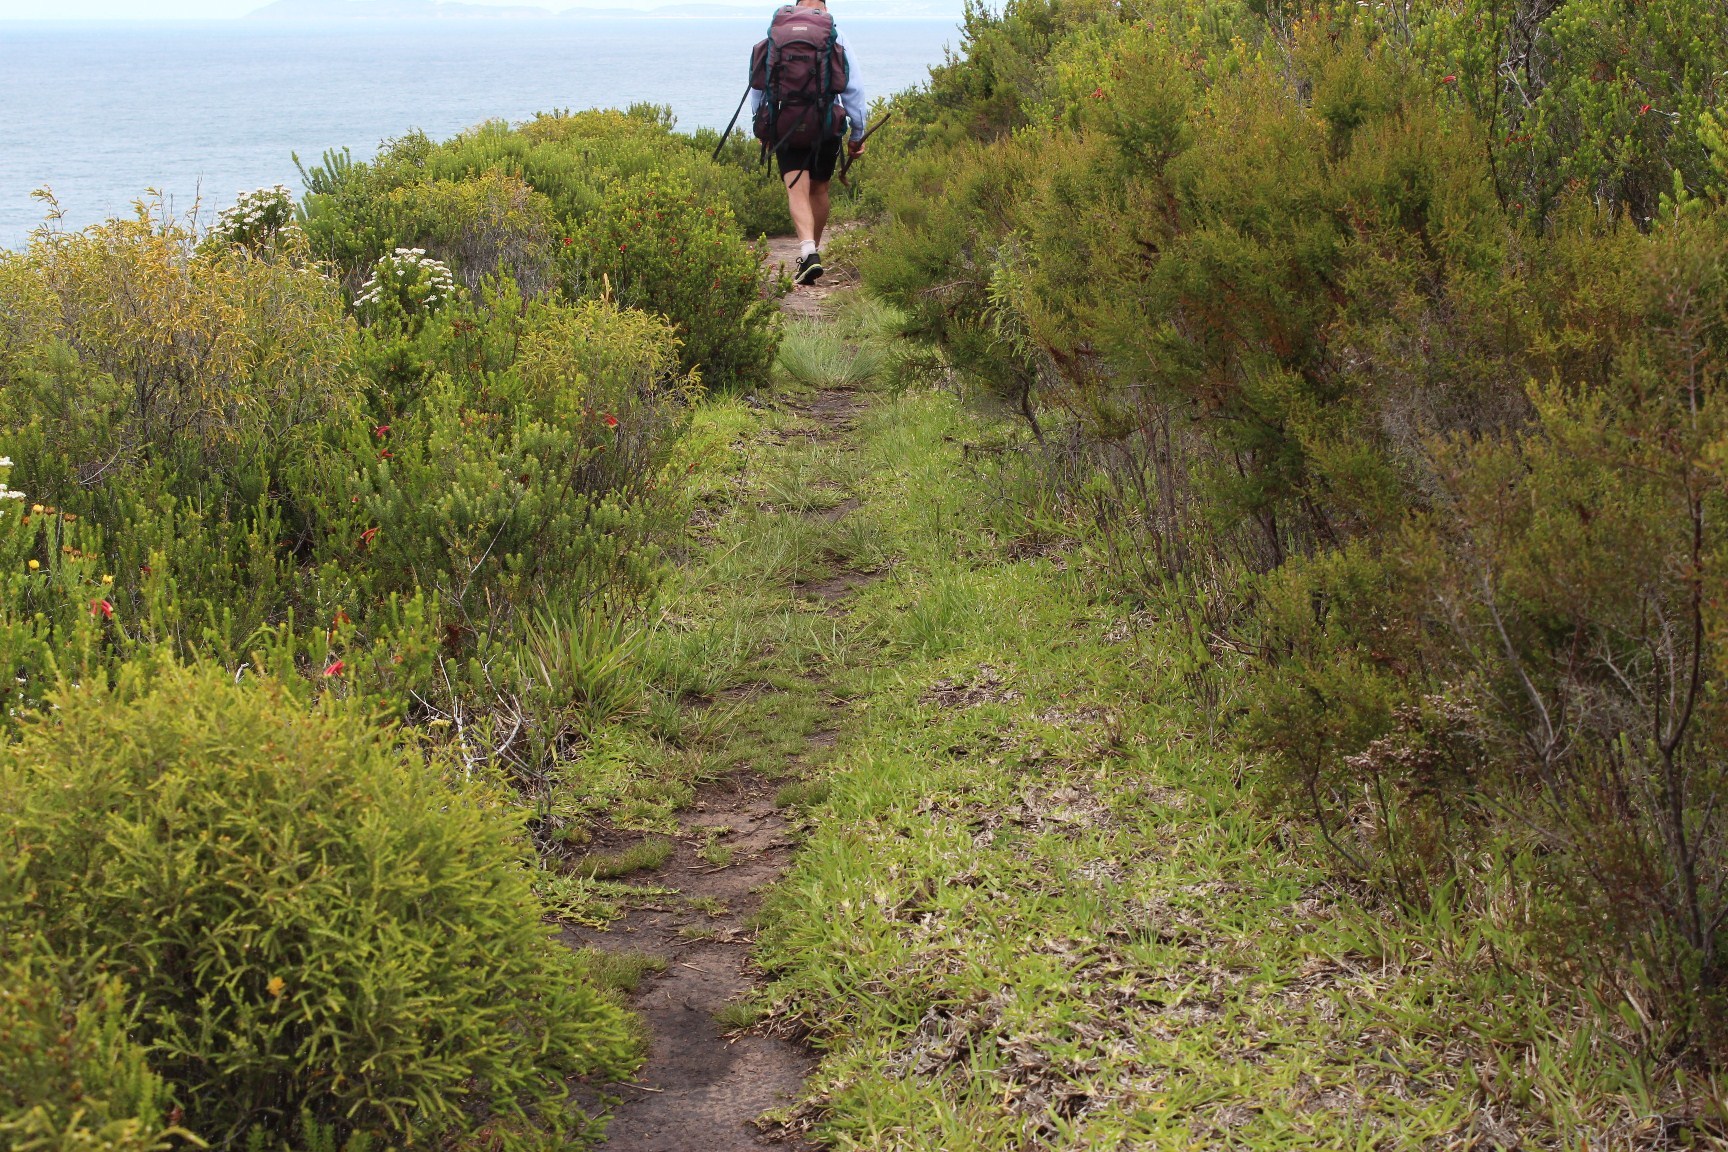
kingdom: Plantae
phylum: Tracheophyta
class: Liliopsida
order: Poales
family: Poaceae
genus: Briza
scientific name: Briza minor
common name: Lesser quaking-grass
